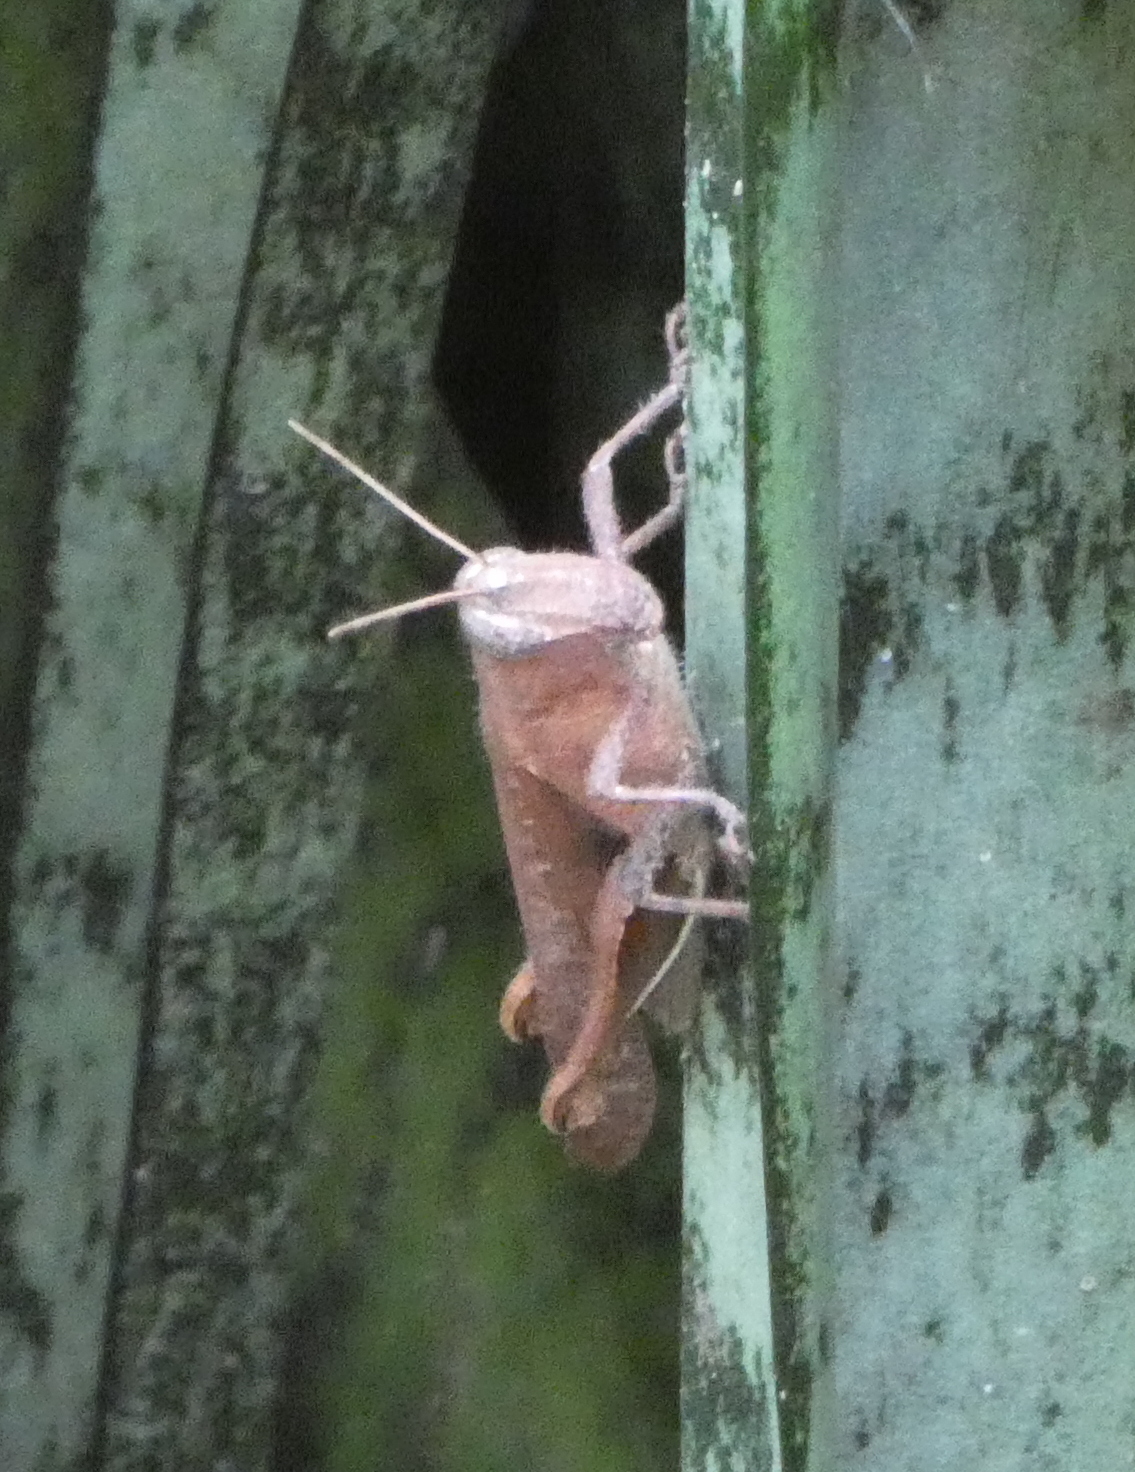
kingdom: Animalia
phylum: Arthropoda
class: Insecta
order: Orthoptera
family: Acrididae
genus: Abracris
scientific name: Abracris flavolineata
